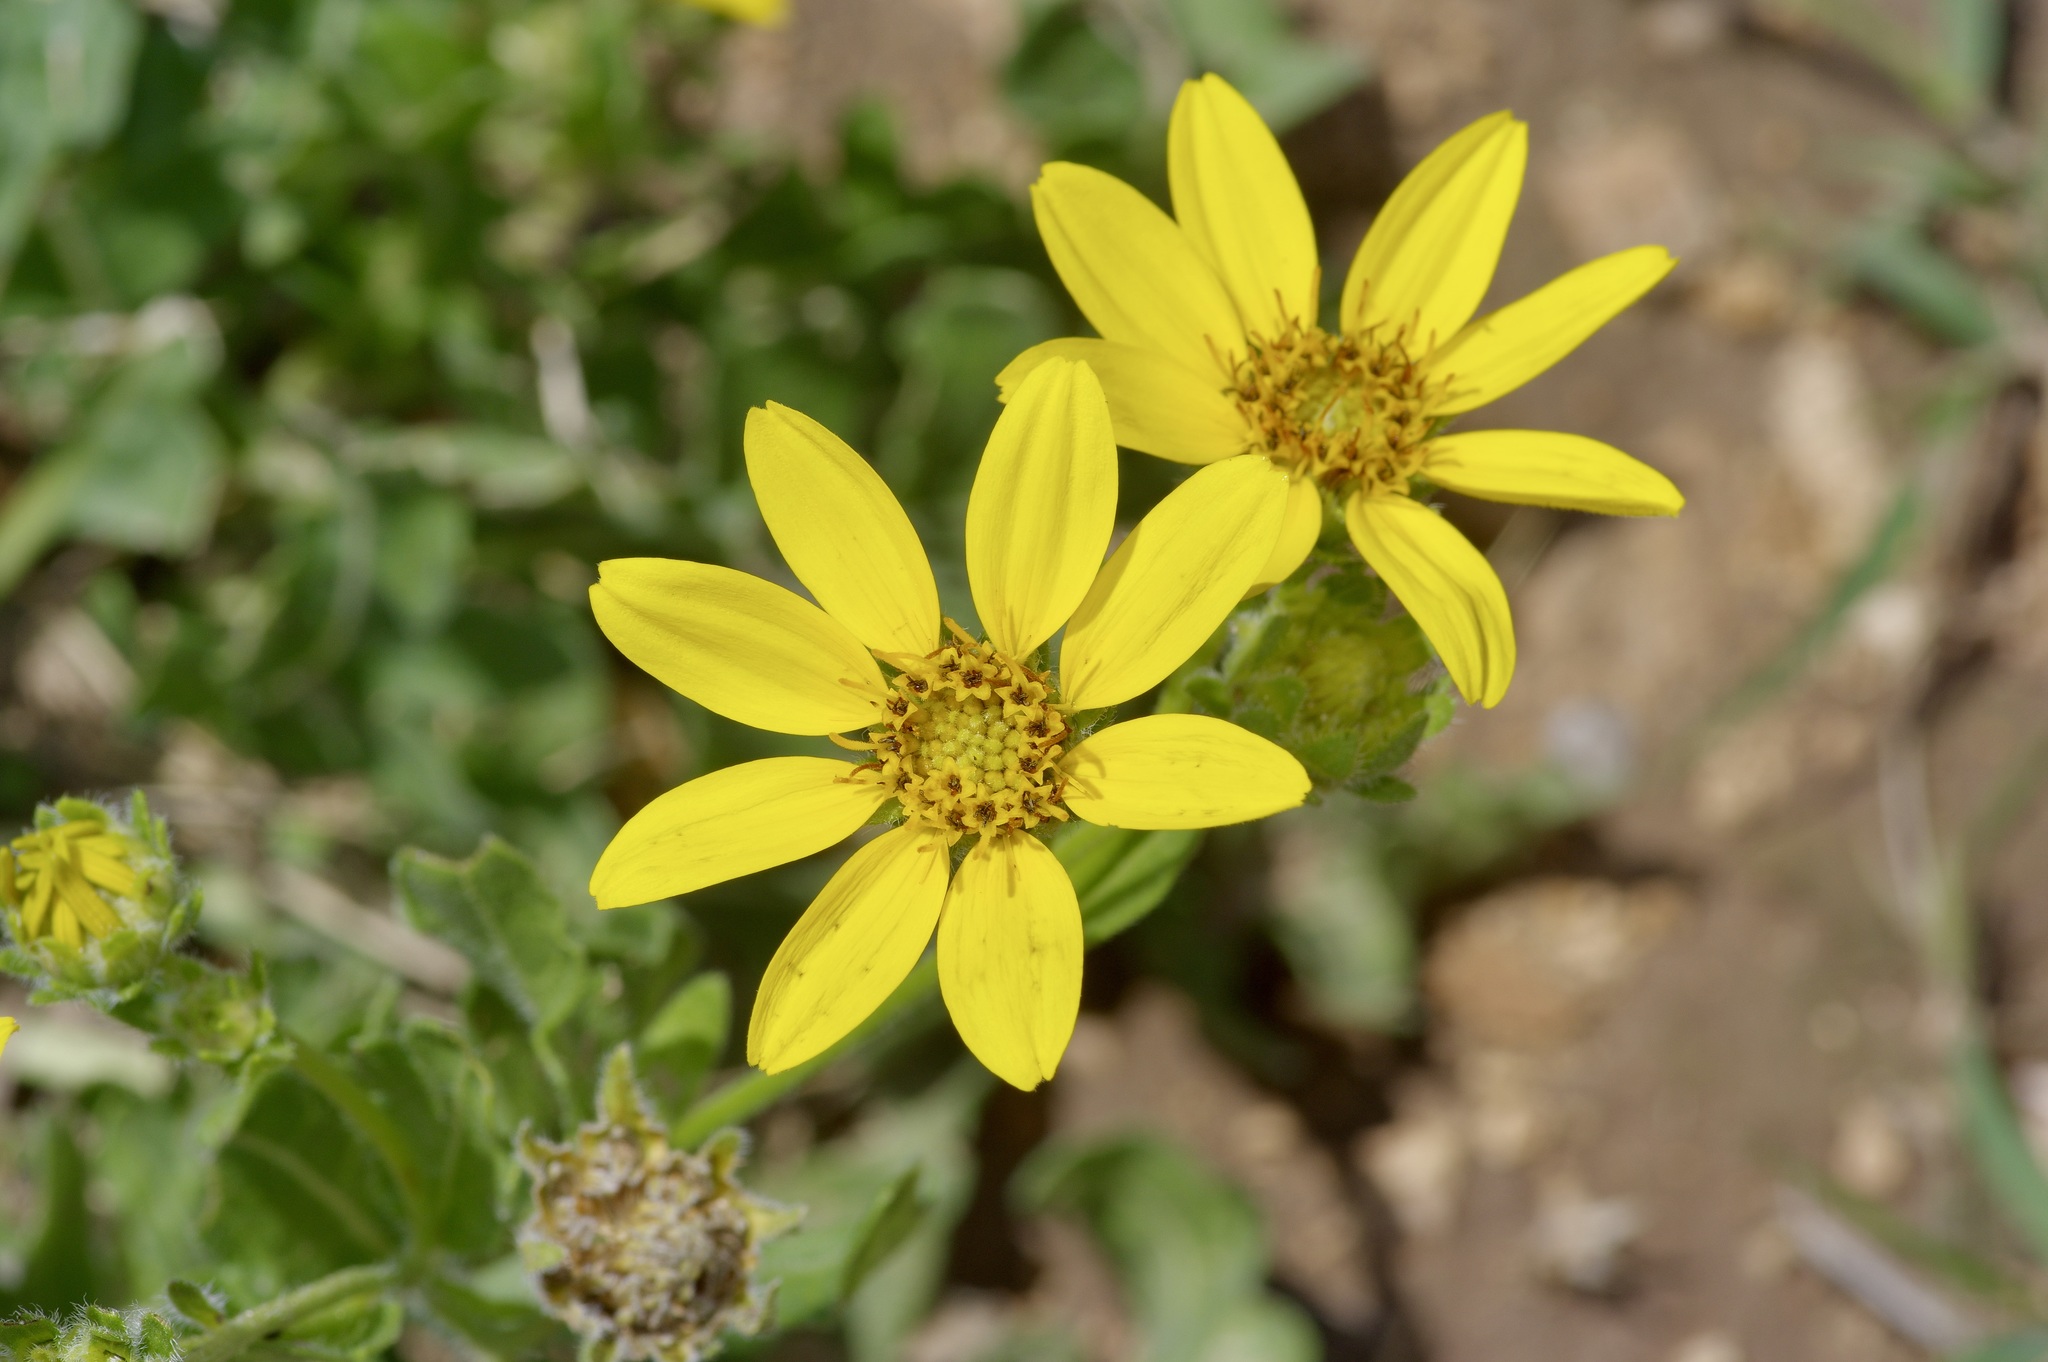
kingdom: Plantae
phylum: Tracheophyta
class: Magnoliopsida
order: Asterales
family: Asteraceae
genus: Engelmannia
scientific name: Engelmannia peristenia
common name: Engelmann's daisy
